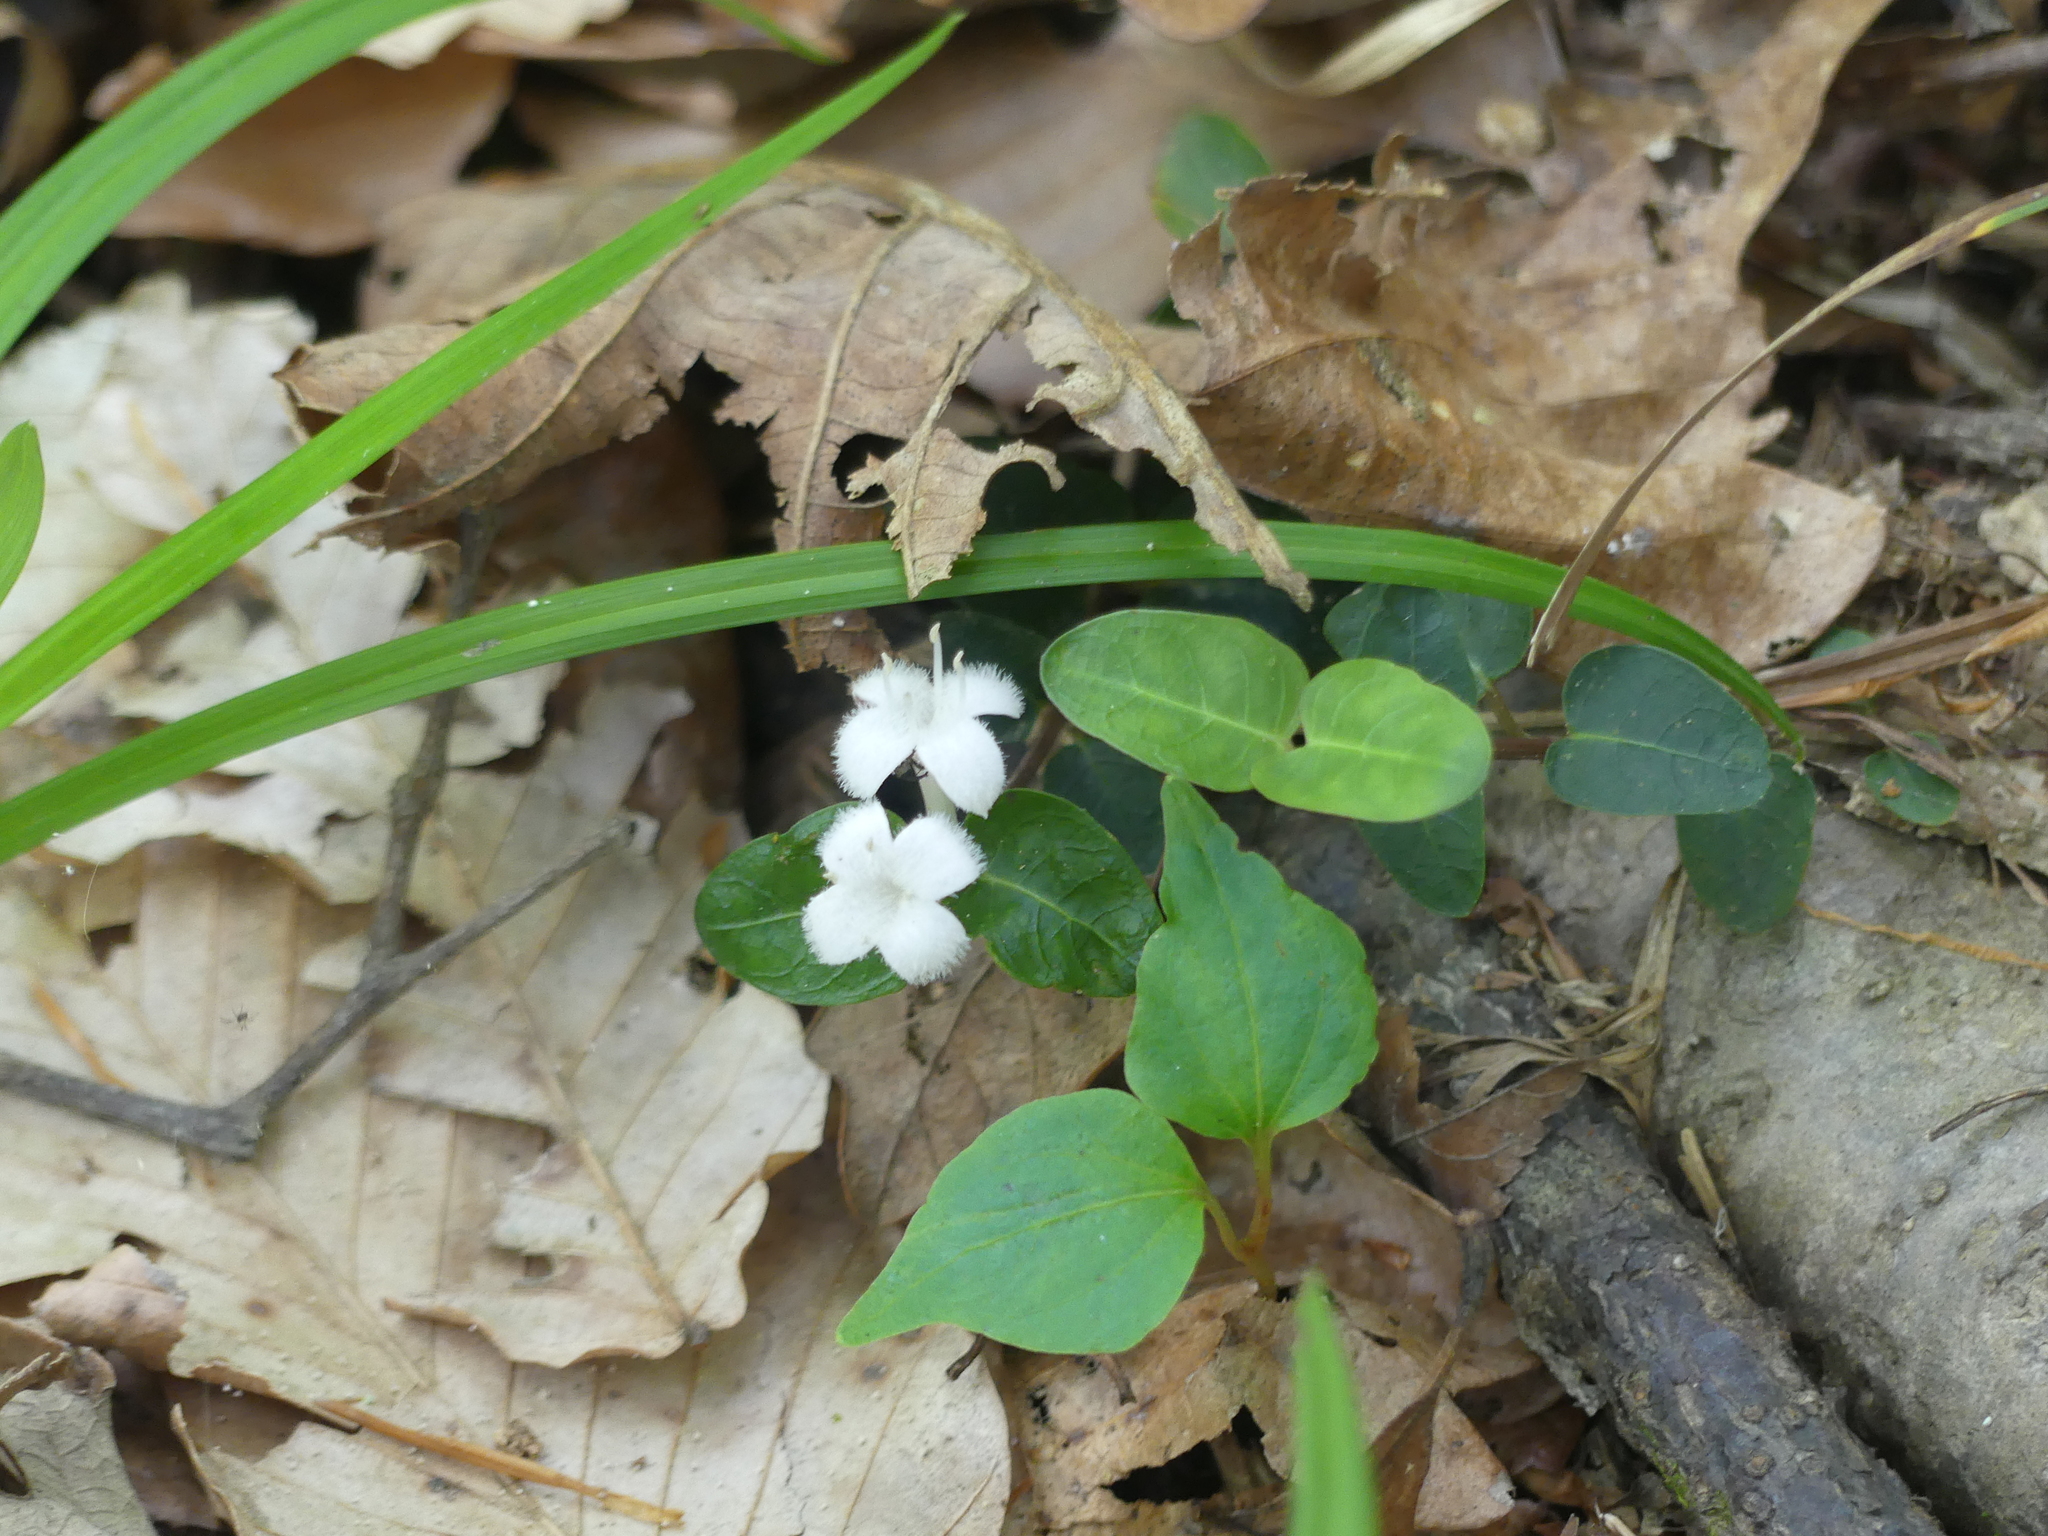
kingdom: Plantae
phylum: Tracheophyta
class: Magnoliopsida
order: Gentianales
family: Rubiaceae
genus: Mitchella
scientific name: Mitchella repens
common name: Partridge-berry
